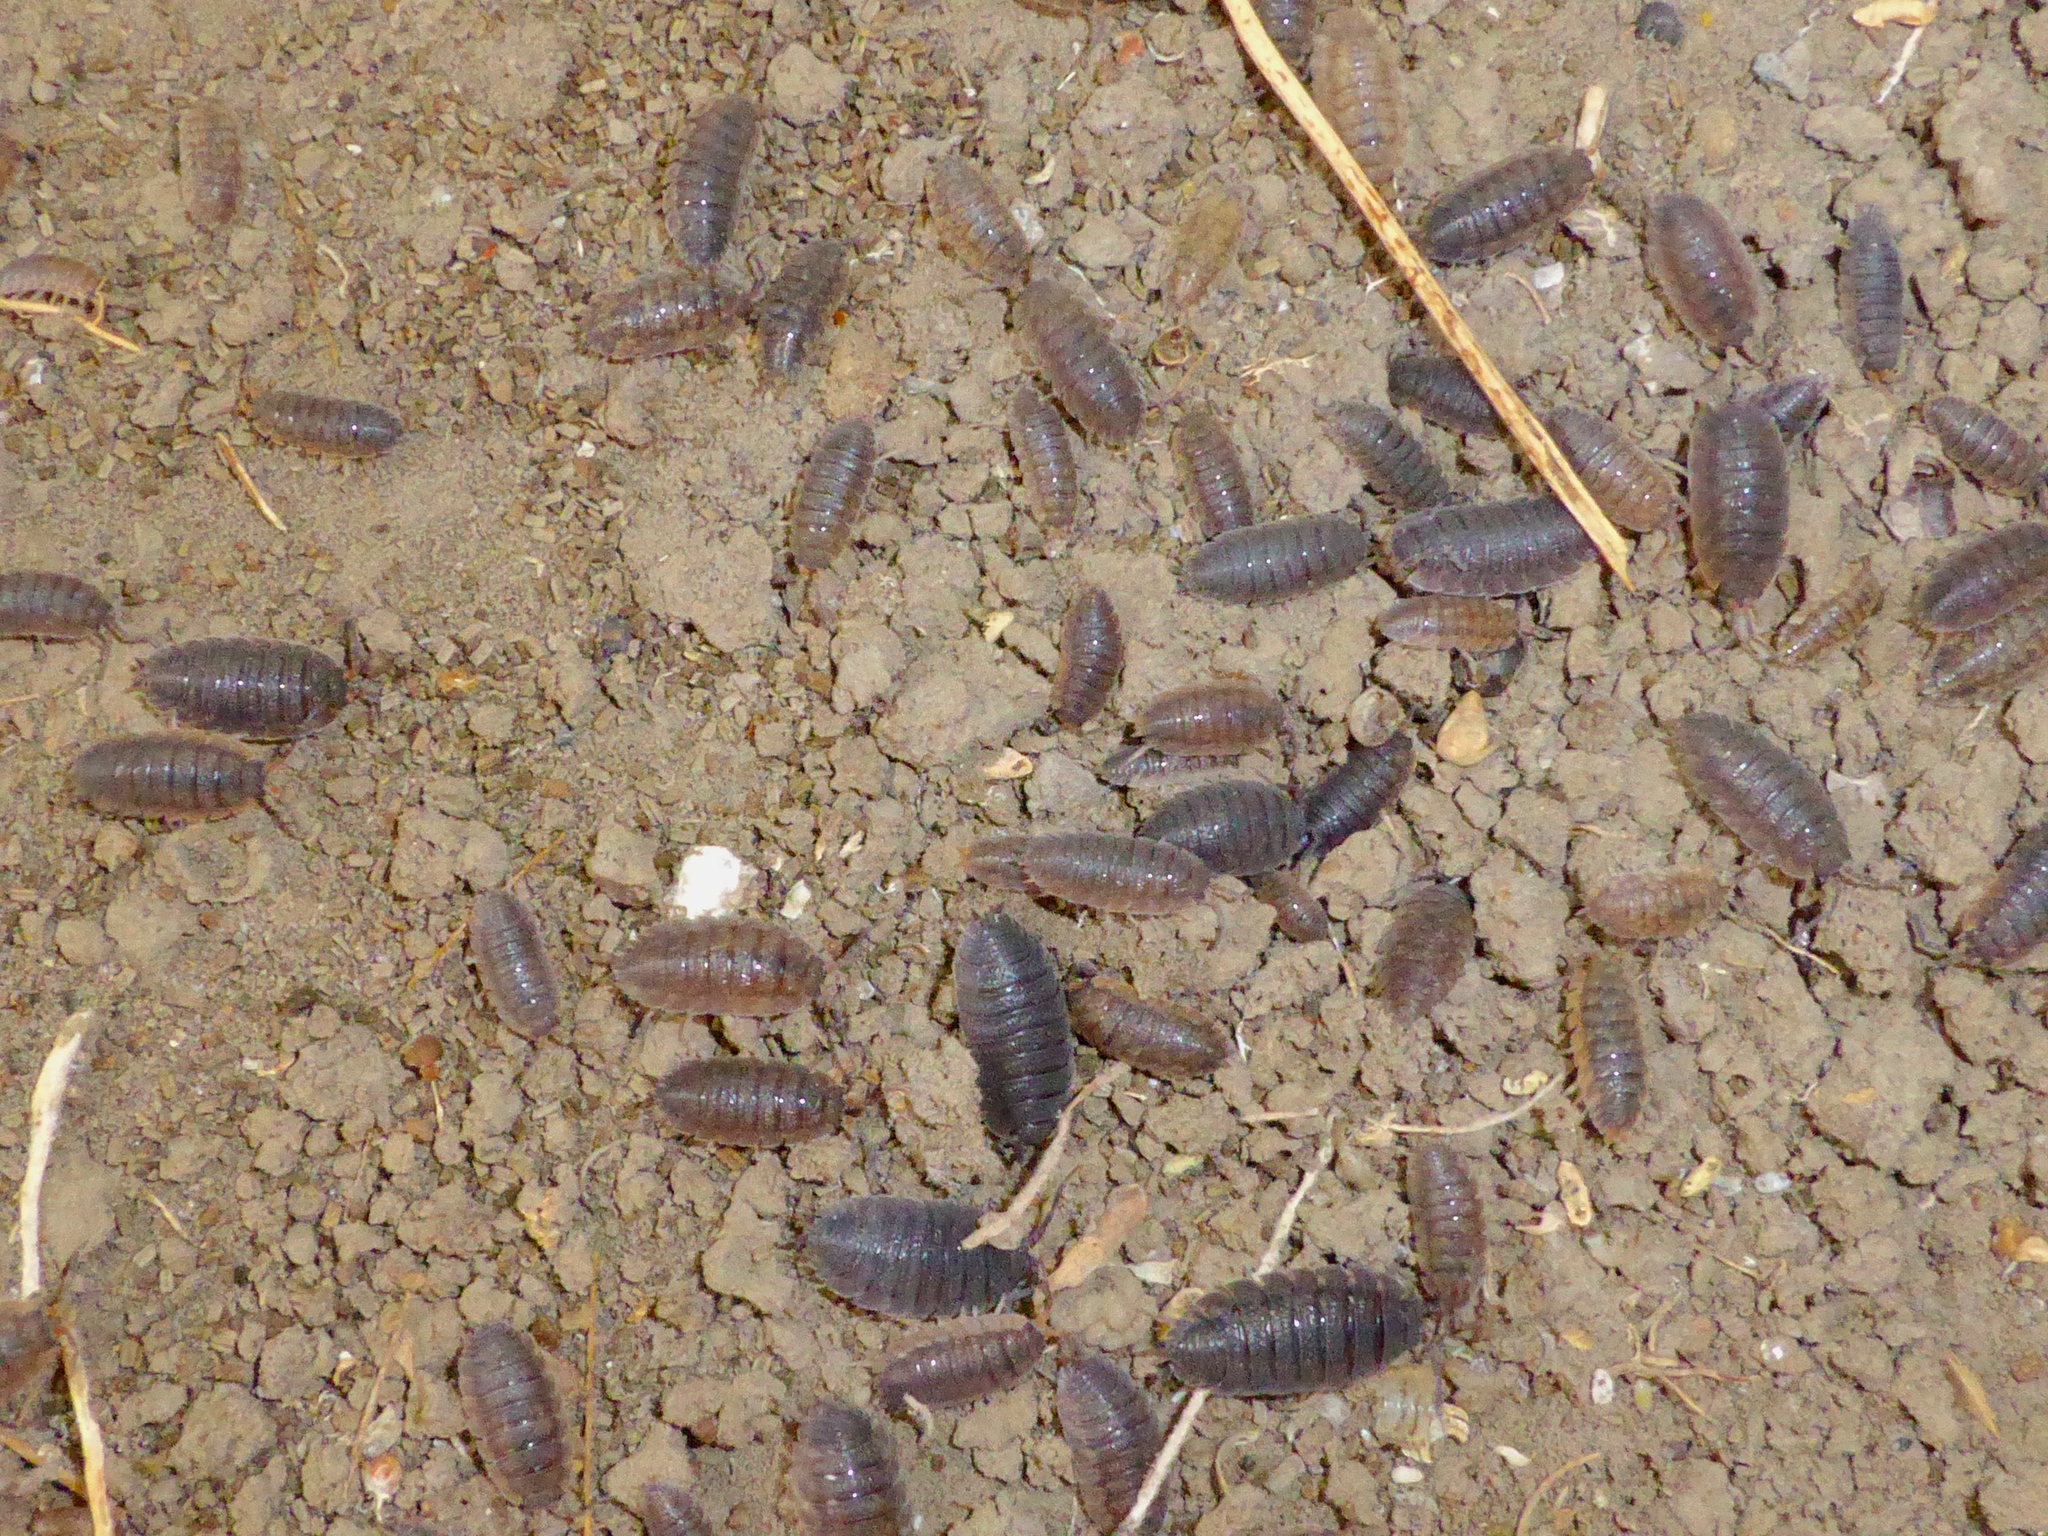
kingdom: Animalia
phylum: Arthropoda
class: Malacostraca
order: Isopoda
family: Porcellionidae
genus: Porcellio
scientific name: Porcellio scaber
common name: Common rough woodlouse
